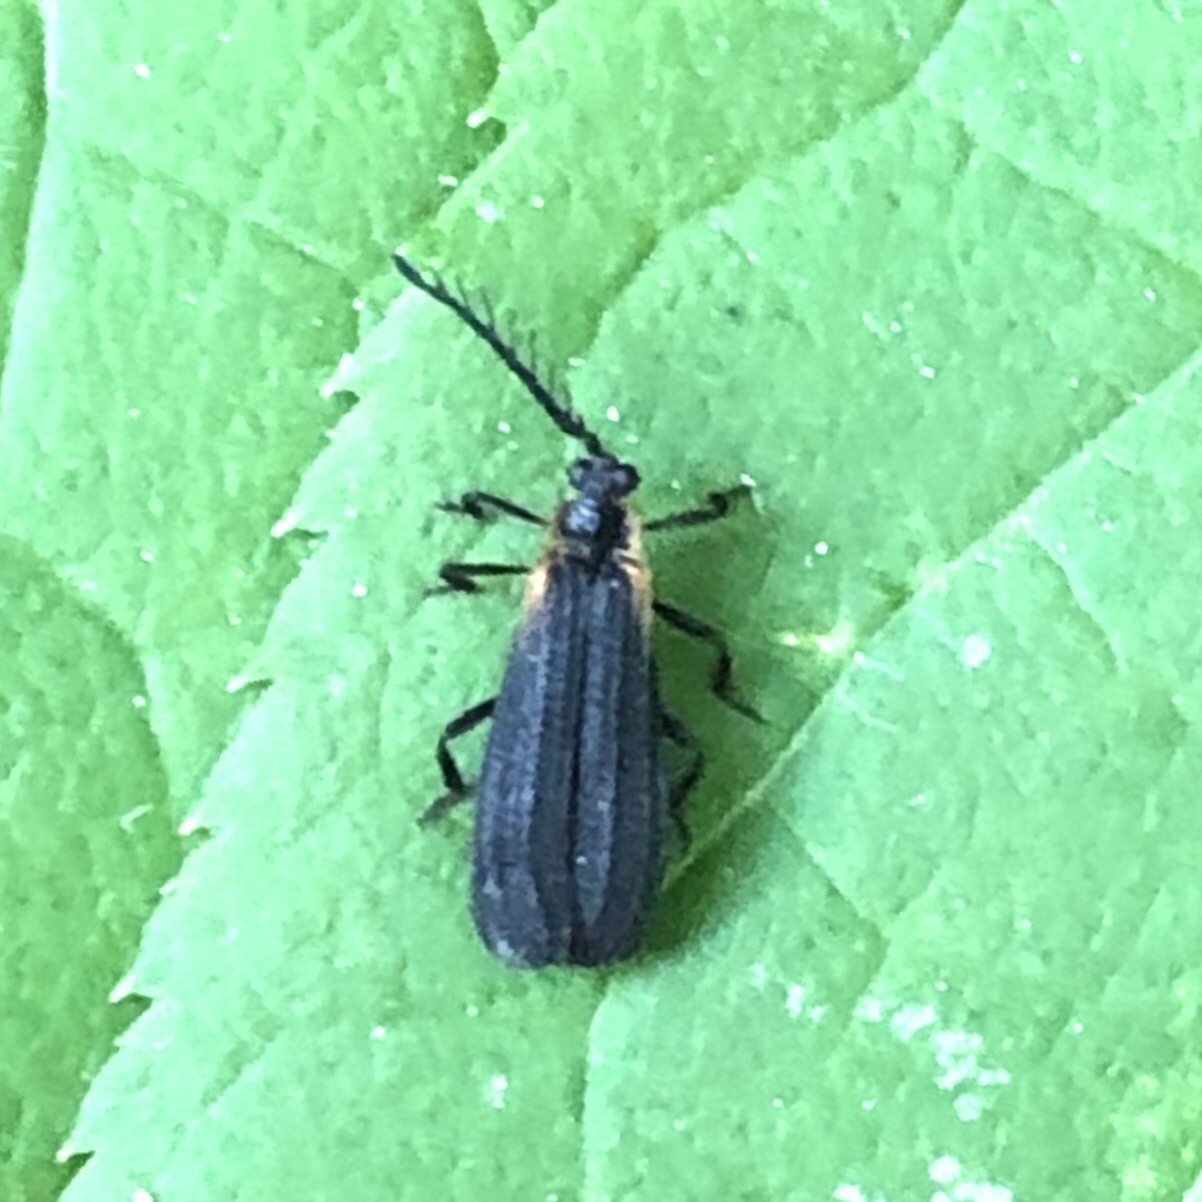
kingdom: Animalia
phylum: Arthropoda
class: Insecta
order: Coleoptera
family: Lycidae
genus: Leptoceletes
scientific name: Leptoceletes basalis
